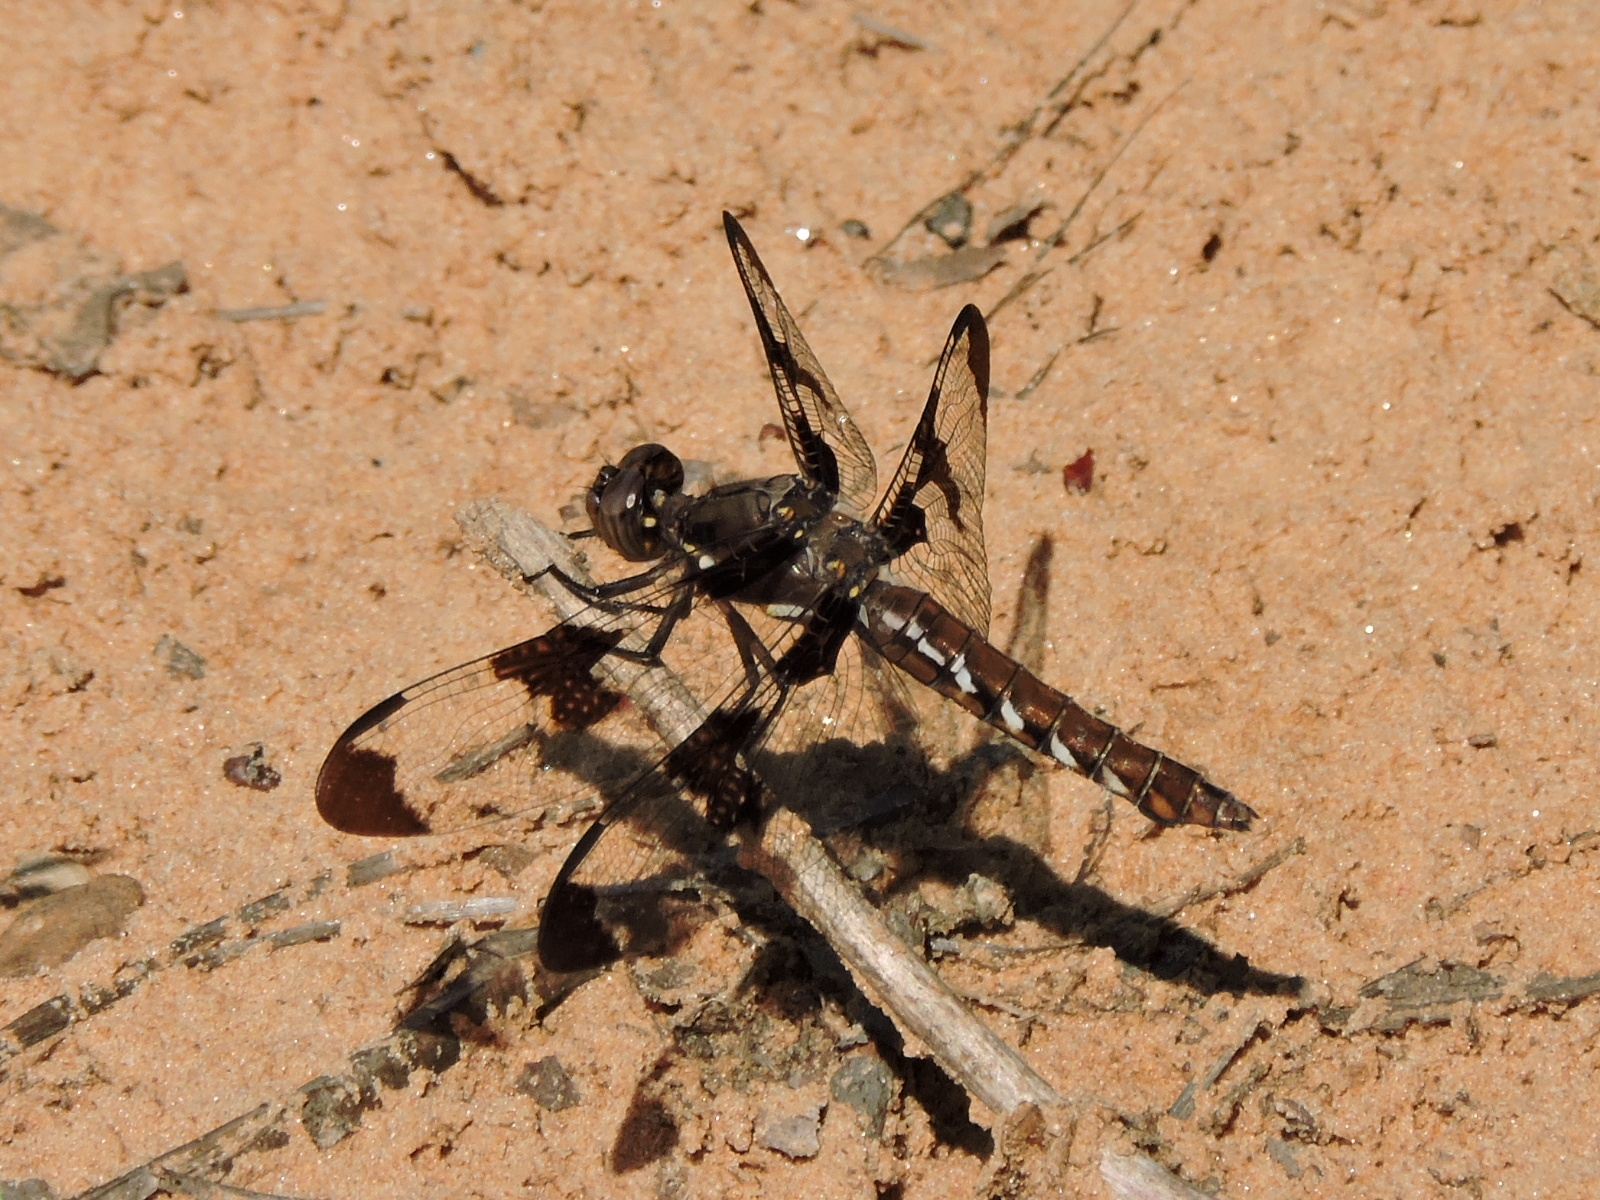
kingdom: Animalia
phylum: Arthropoda
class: Insecta
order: Odonata
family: Libellulidae
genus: Plathemis
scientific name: Plathemis lydia
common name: Common whitetail
